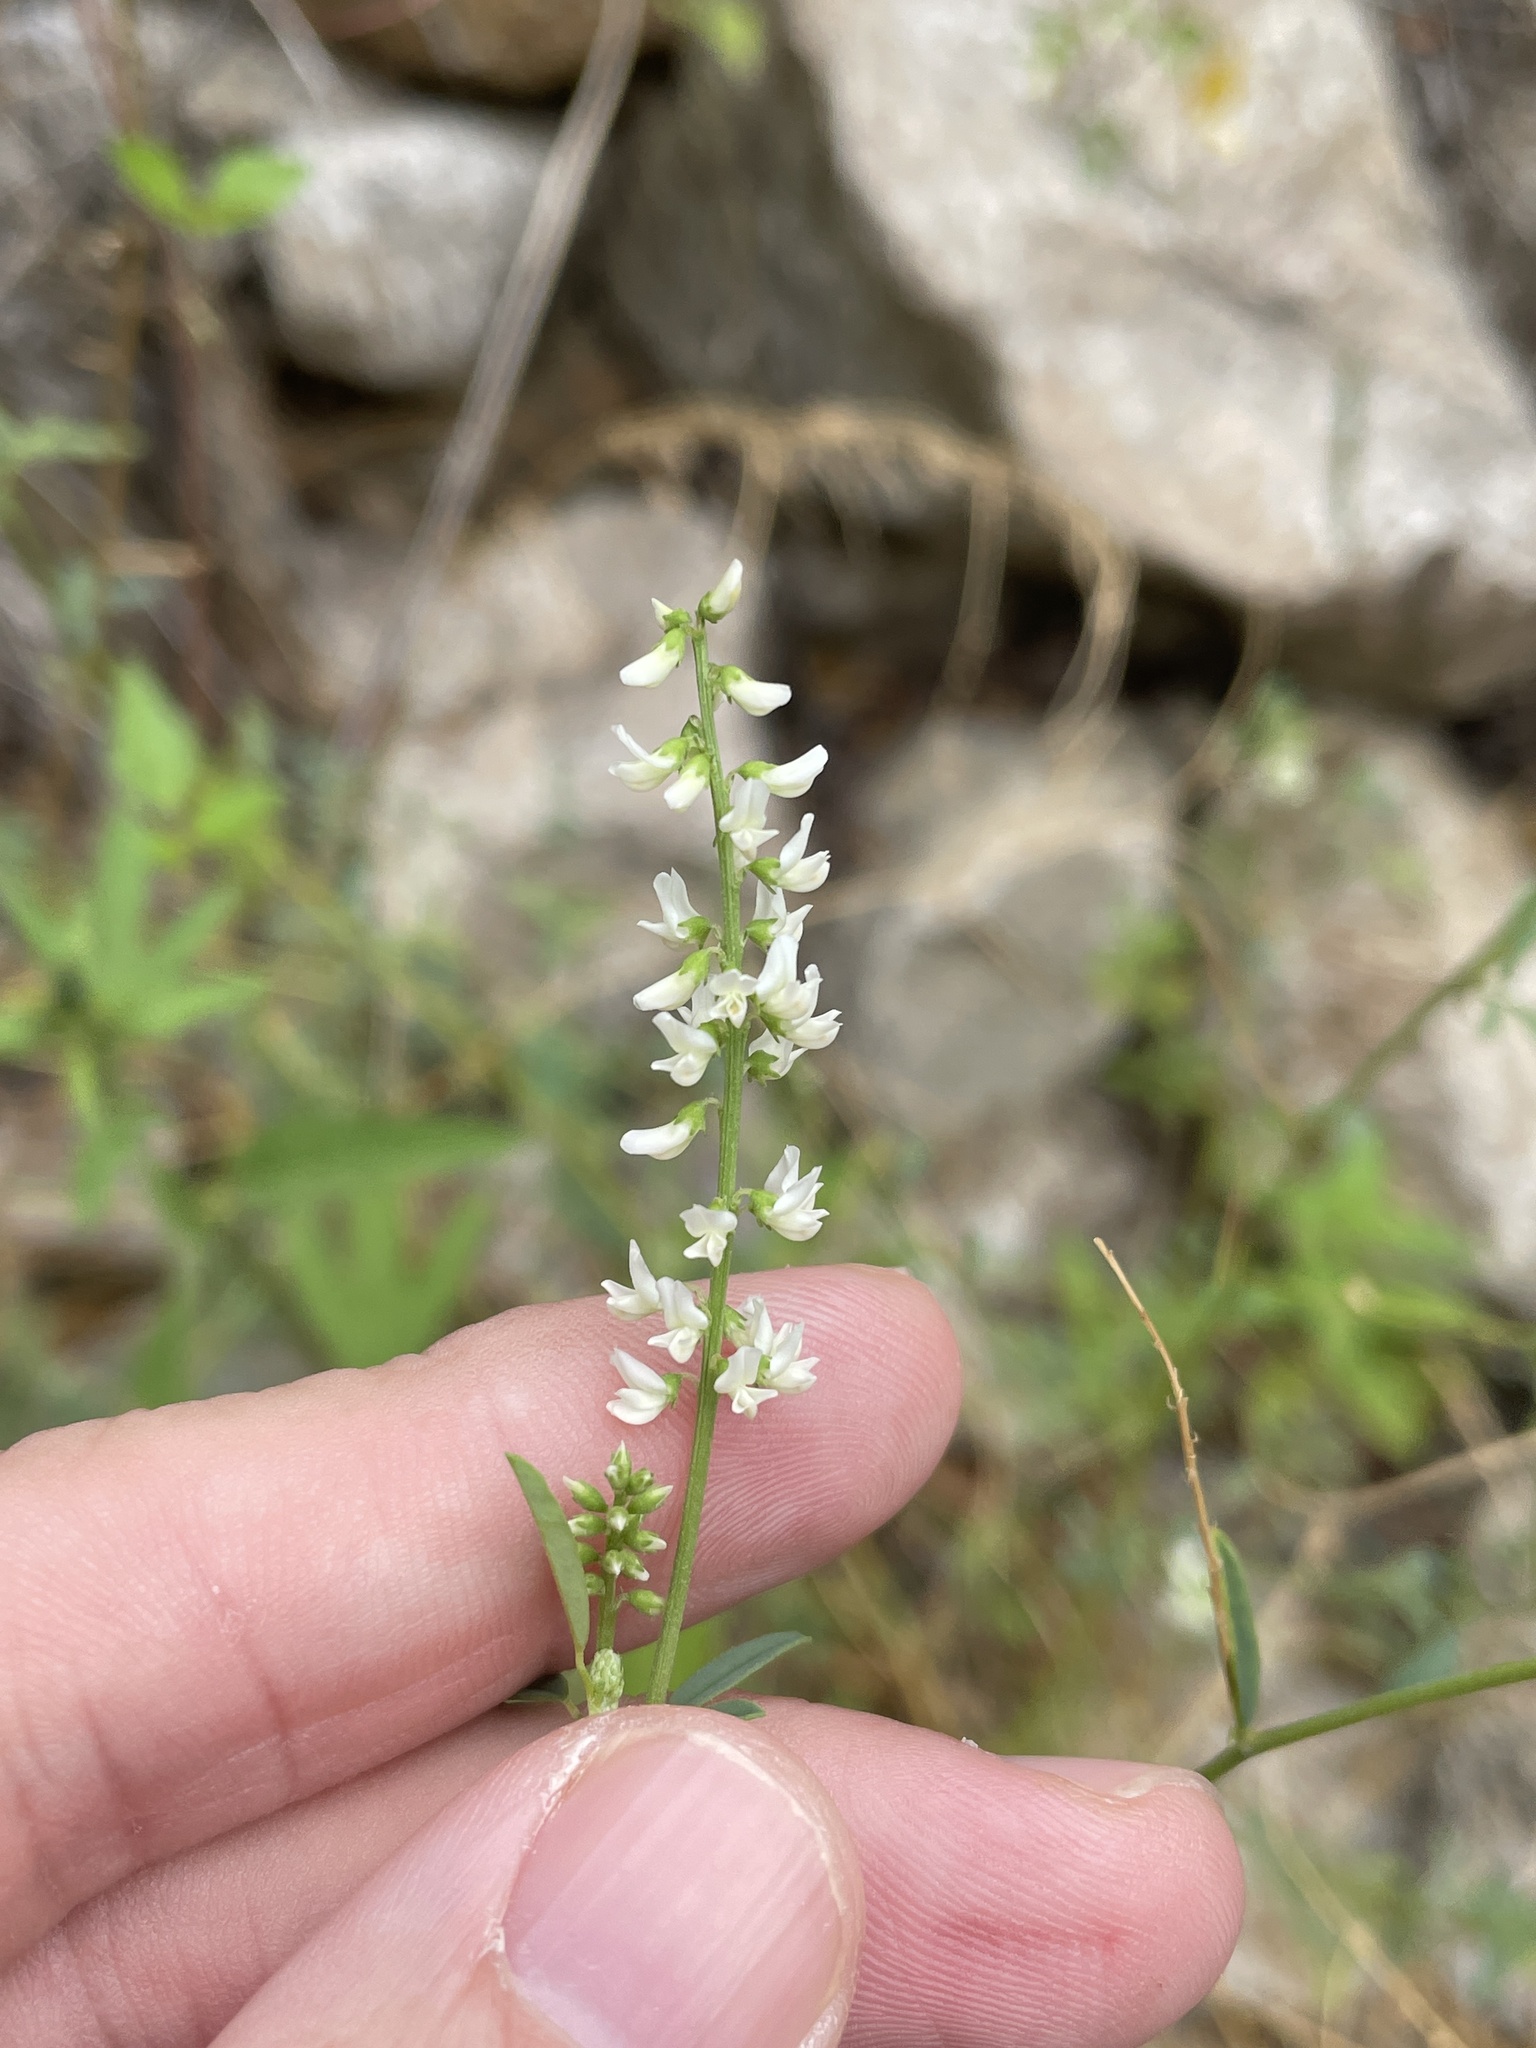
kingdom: Plantae
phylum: Tracheophyta
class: Magnoliopsida
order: Fabales
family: Fabaceae
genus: Melilotus
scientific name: Melilotus albus
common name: White melilot
